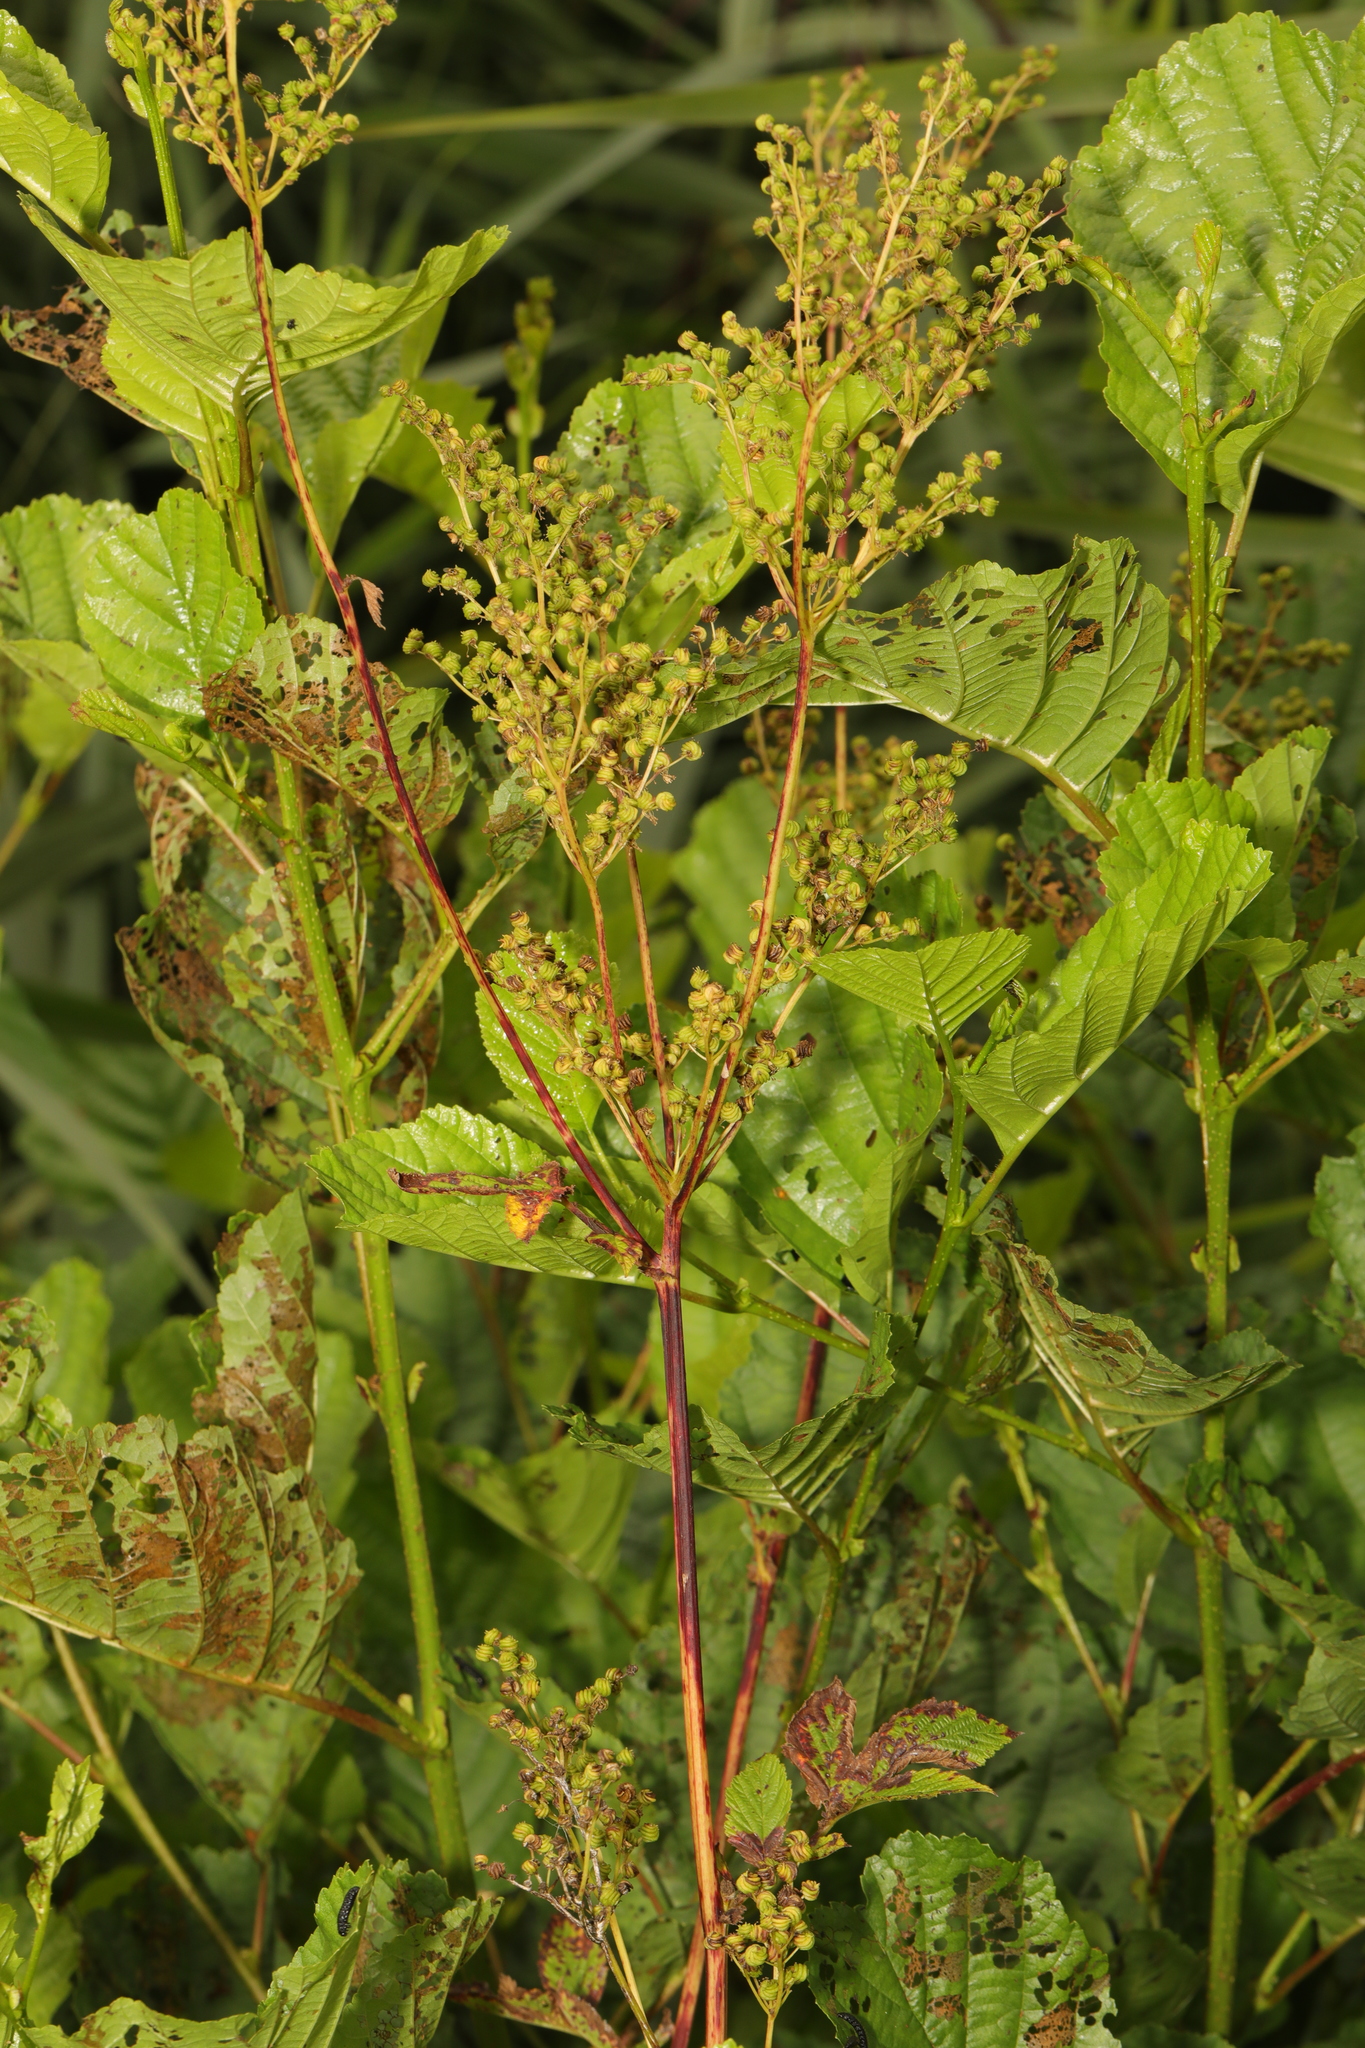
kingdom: Plantae
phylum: Tracheophyta
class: Magnoliopsida
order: Rosales
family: Rosaceae
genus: Filipendula
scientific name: Filipendula ulmaria
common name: Meadowsweet
